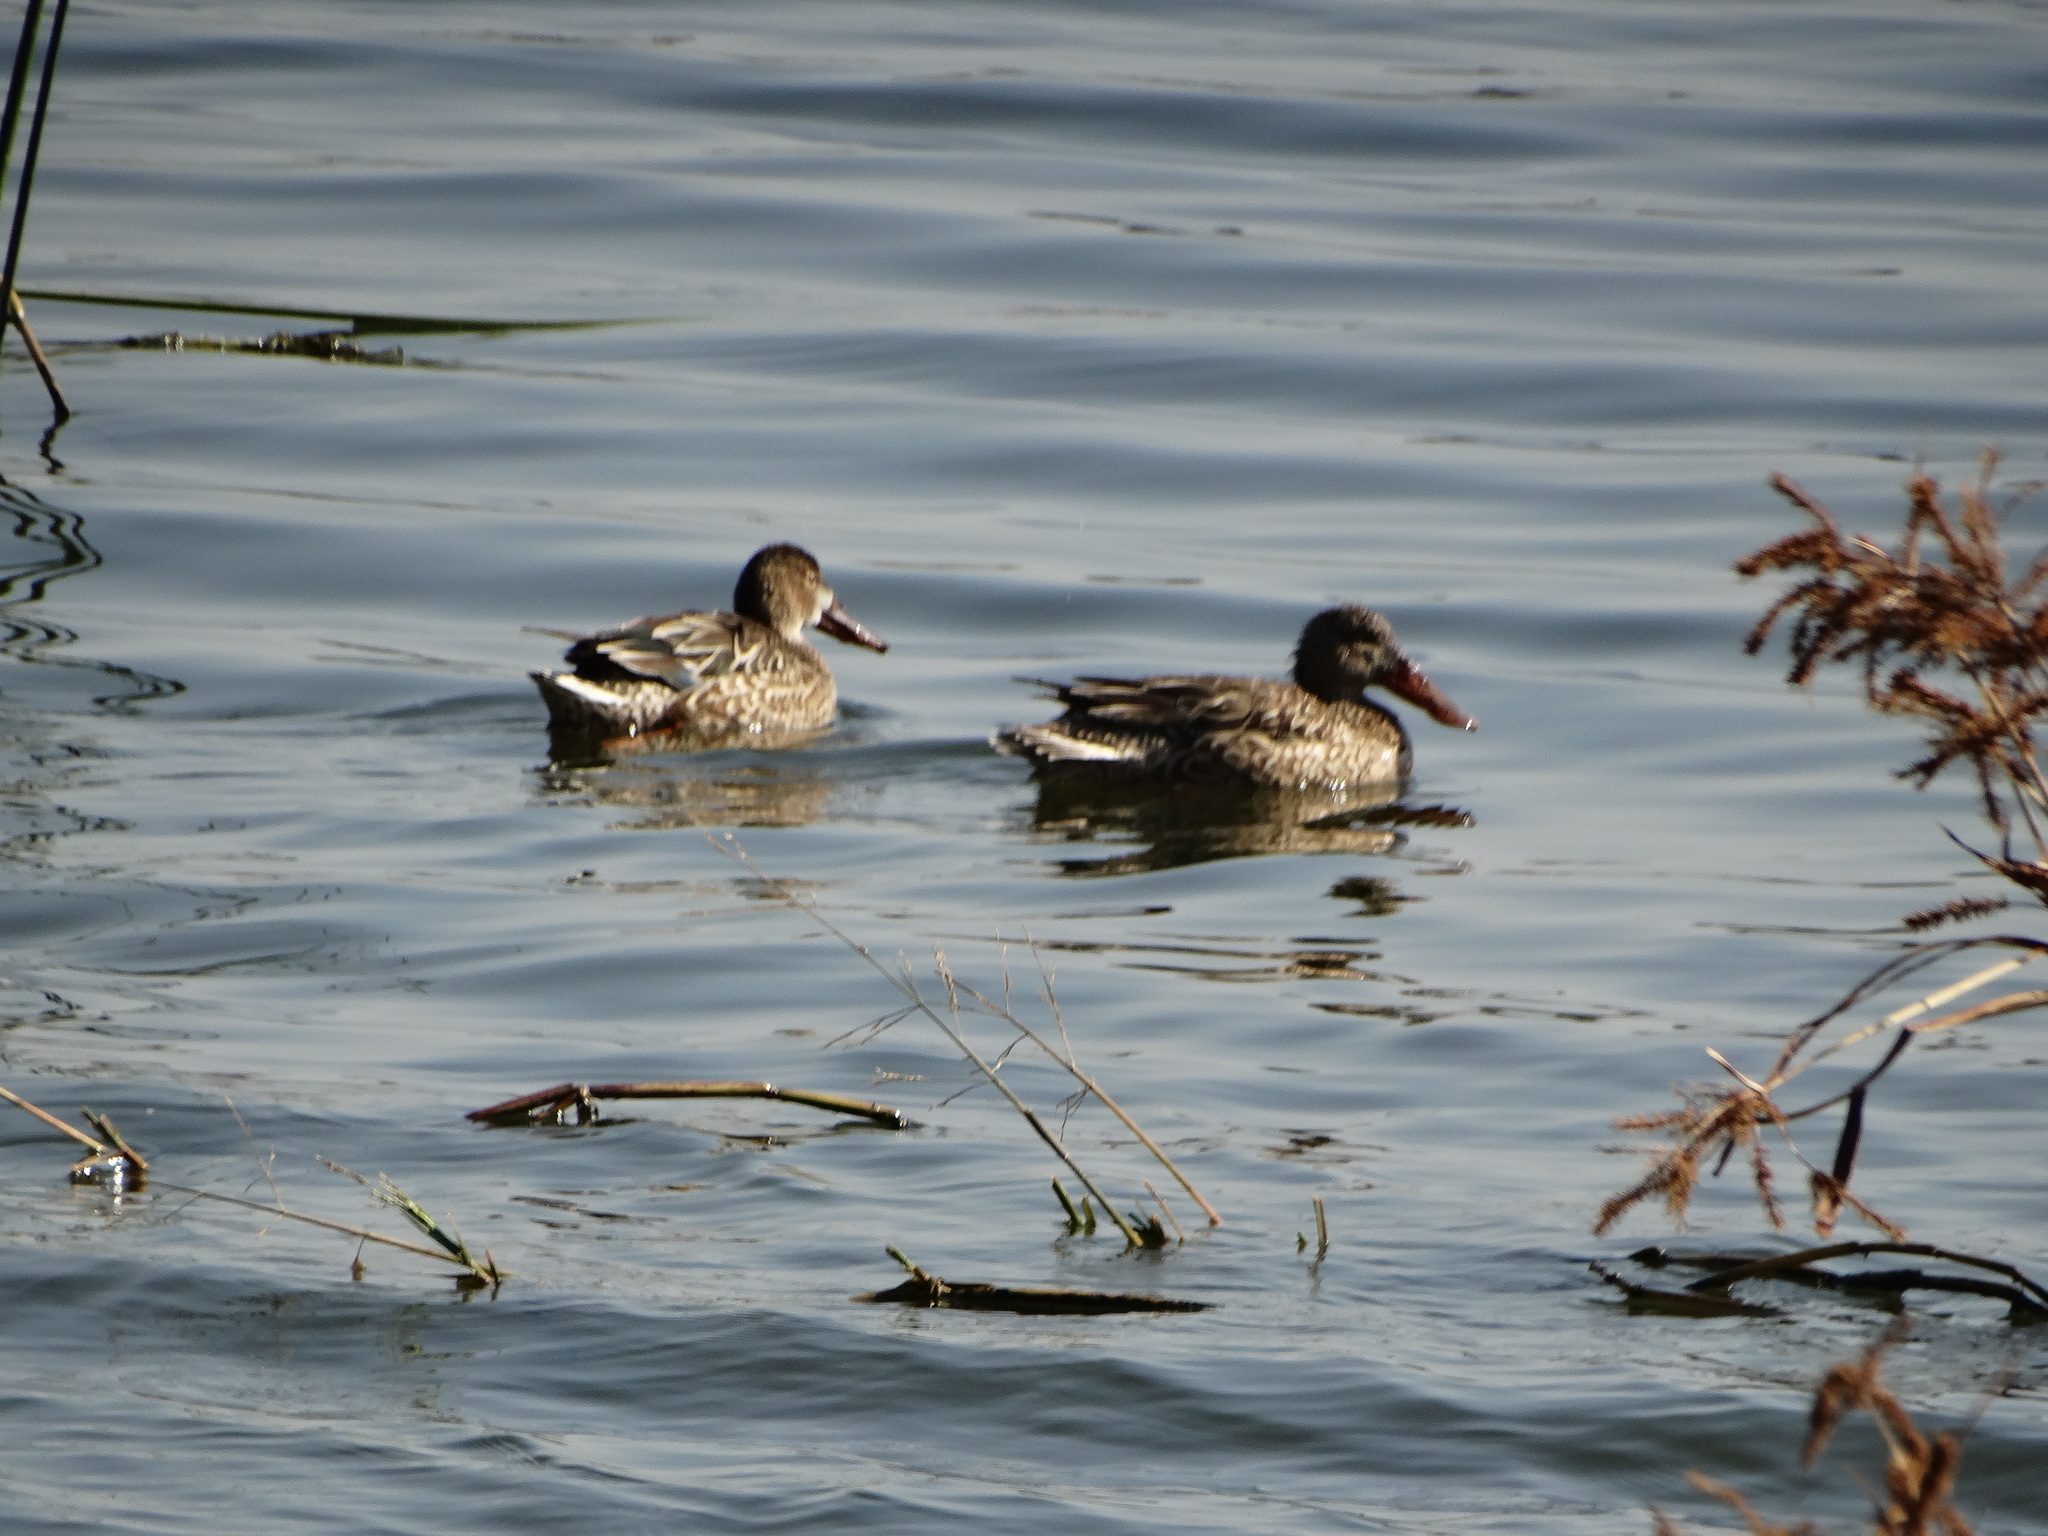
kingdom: Animalia
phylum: Chordata
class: Aves
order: Anseriformes
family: Anatidae
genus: Spatula
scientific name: Spatula clypeata
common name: Northern shoveler
